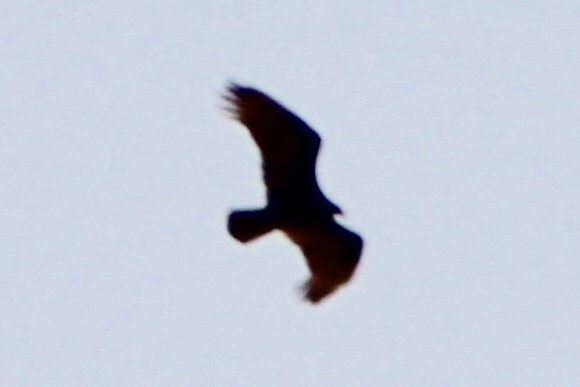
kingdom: Animalia
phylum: Chordata
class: Aves
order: Accipitriformes
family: Cathartidae
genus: Cathartes
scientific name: Cathartes aura
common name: Turkey vulture
